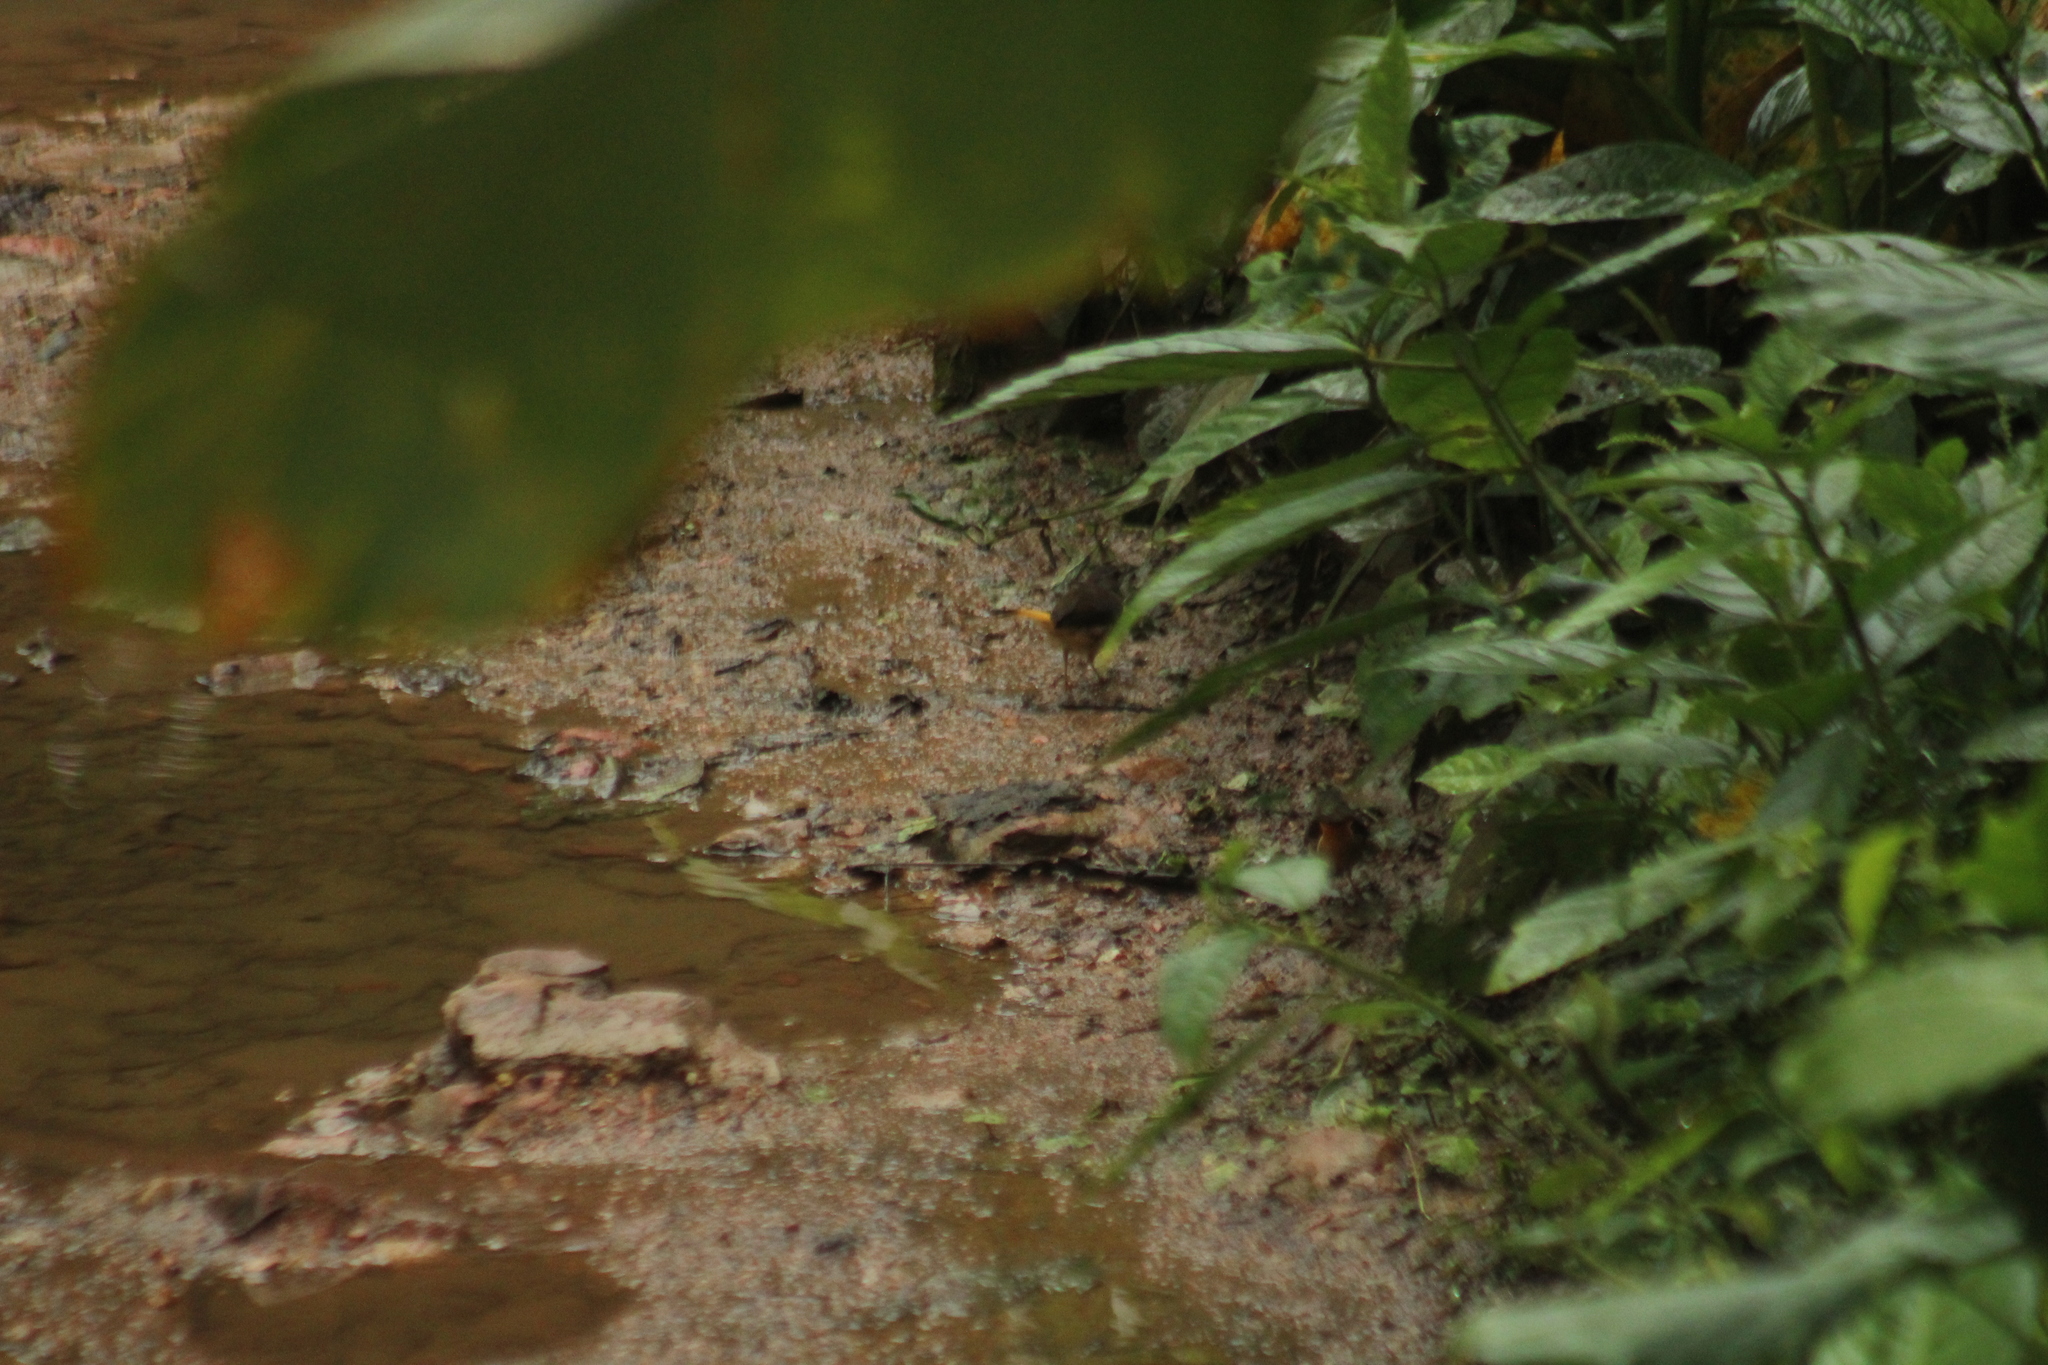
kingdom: Animalia
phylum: Chordata
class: Aves
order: Passeriformes
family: Parulidae
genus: Myiothlypis
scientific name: Myiothlypis fulvicauda
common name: Buff-rumped warbler
